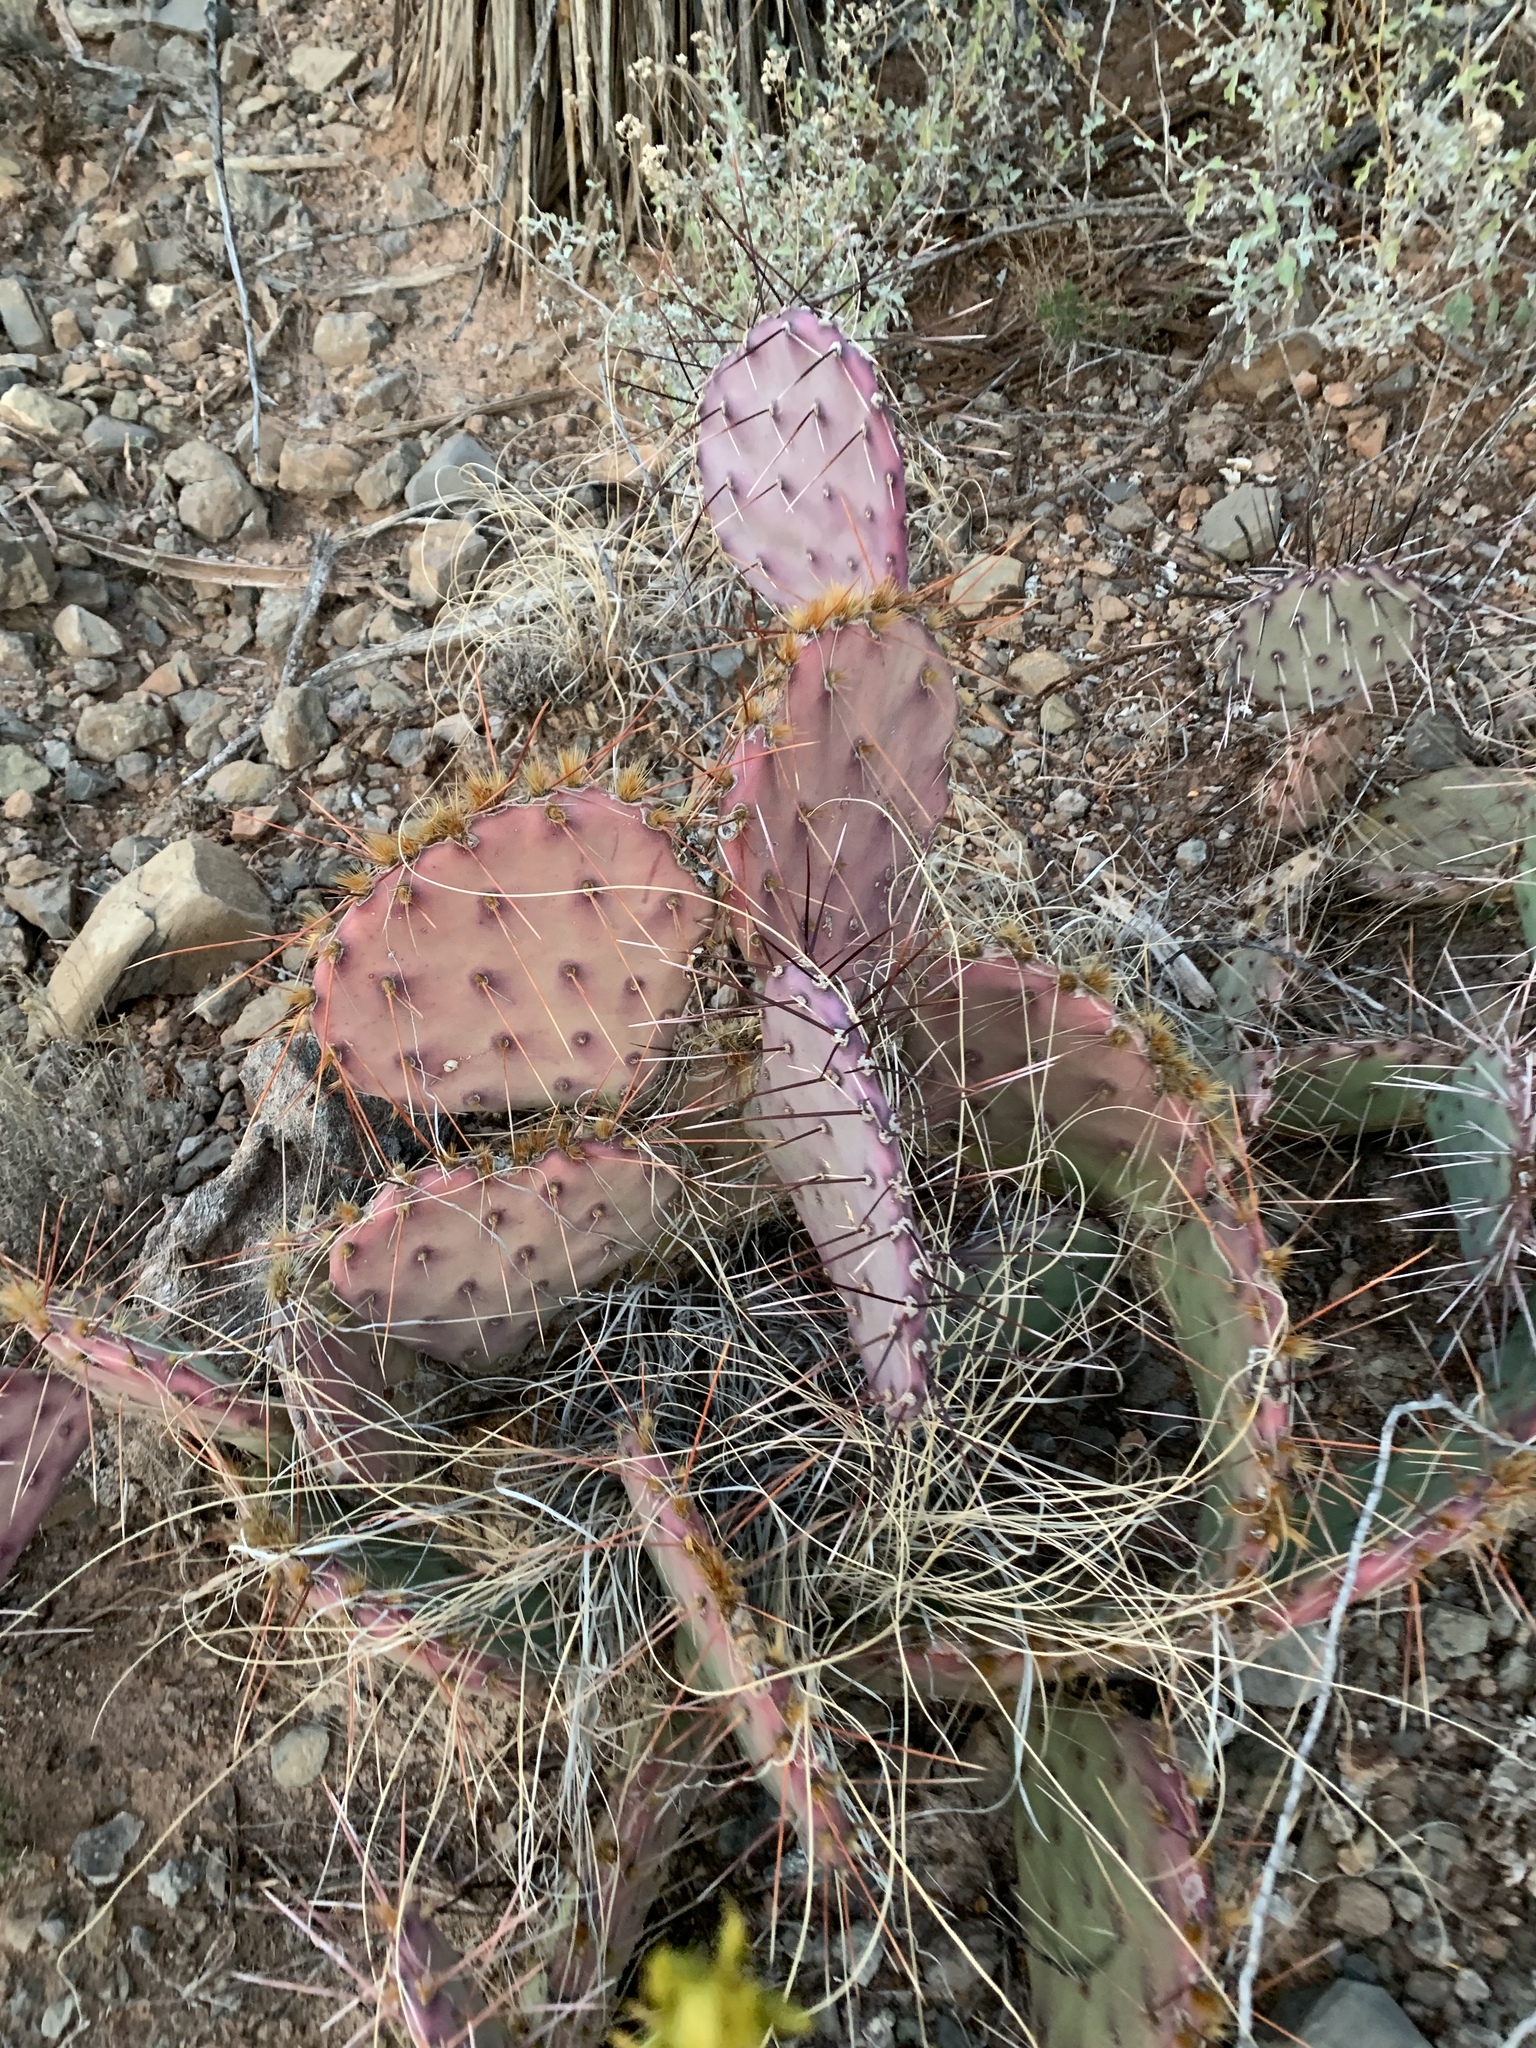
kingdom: Plantae
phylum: Tracheophyta
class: Magnoliopsida
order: Caryophyllales
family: Cactaceae
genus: Opuntia
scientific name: Opuntia macrocentra
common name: Purple prickly-pear
